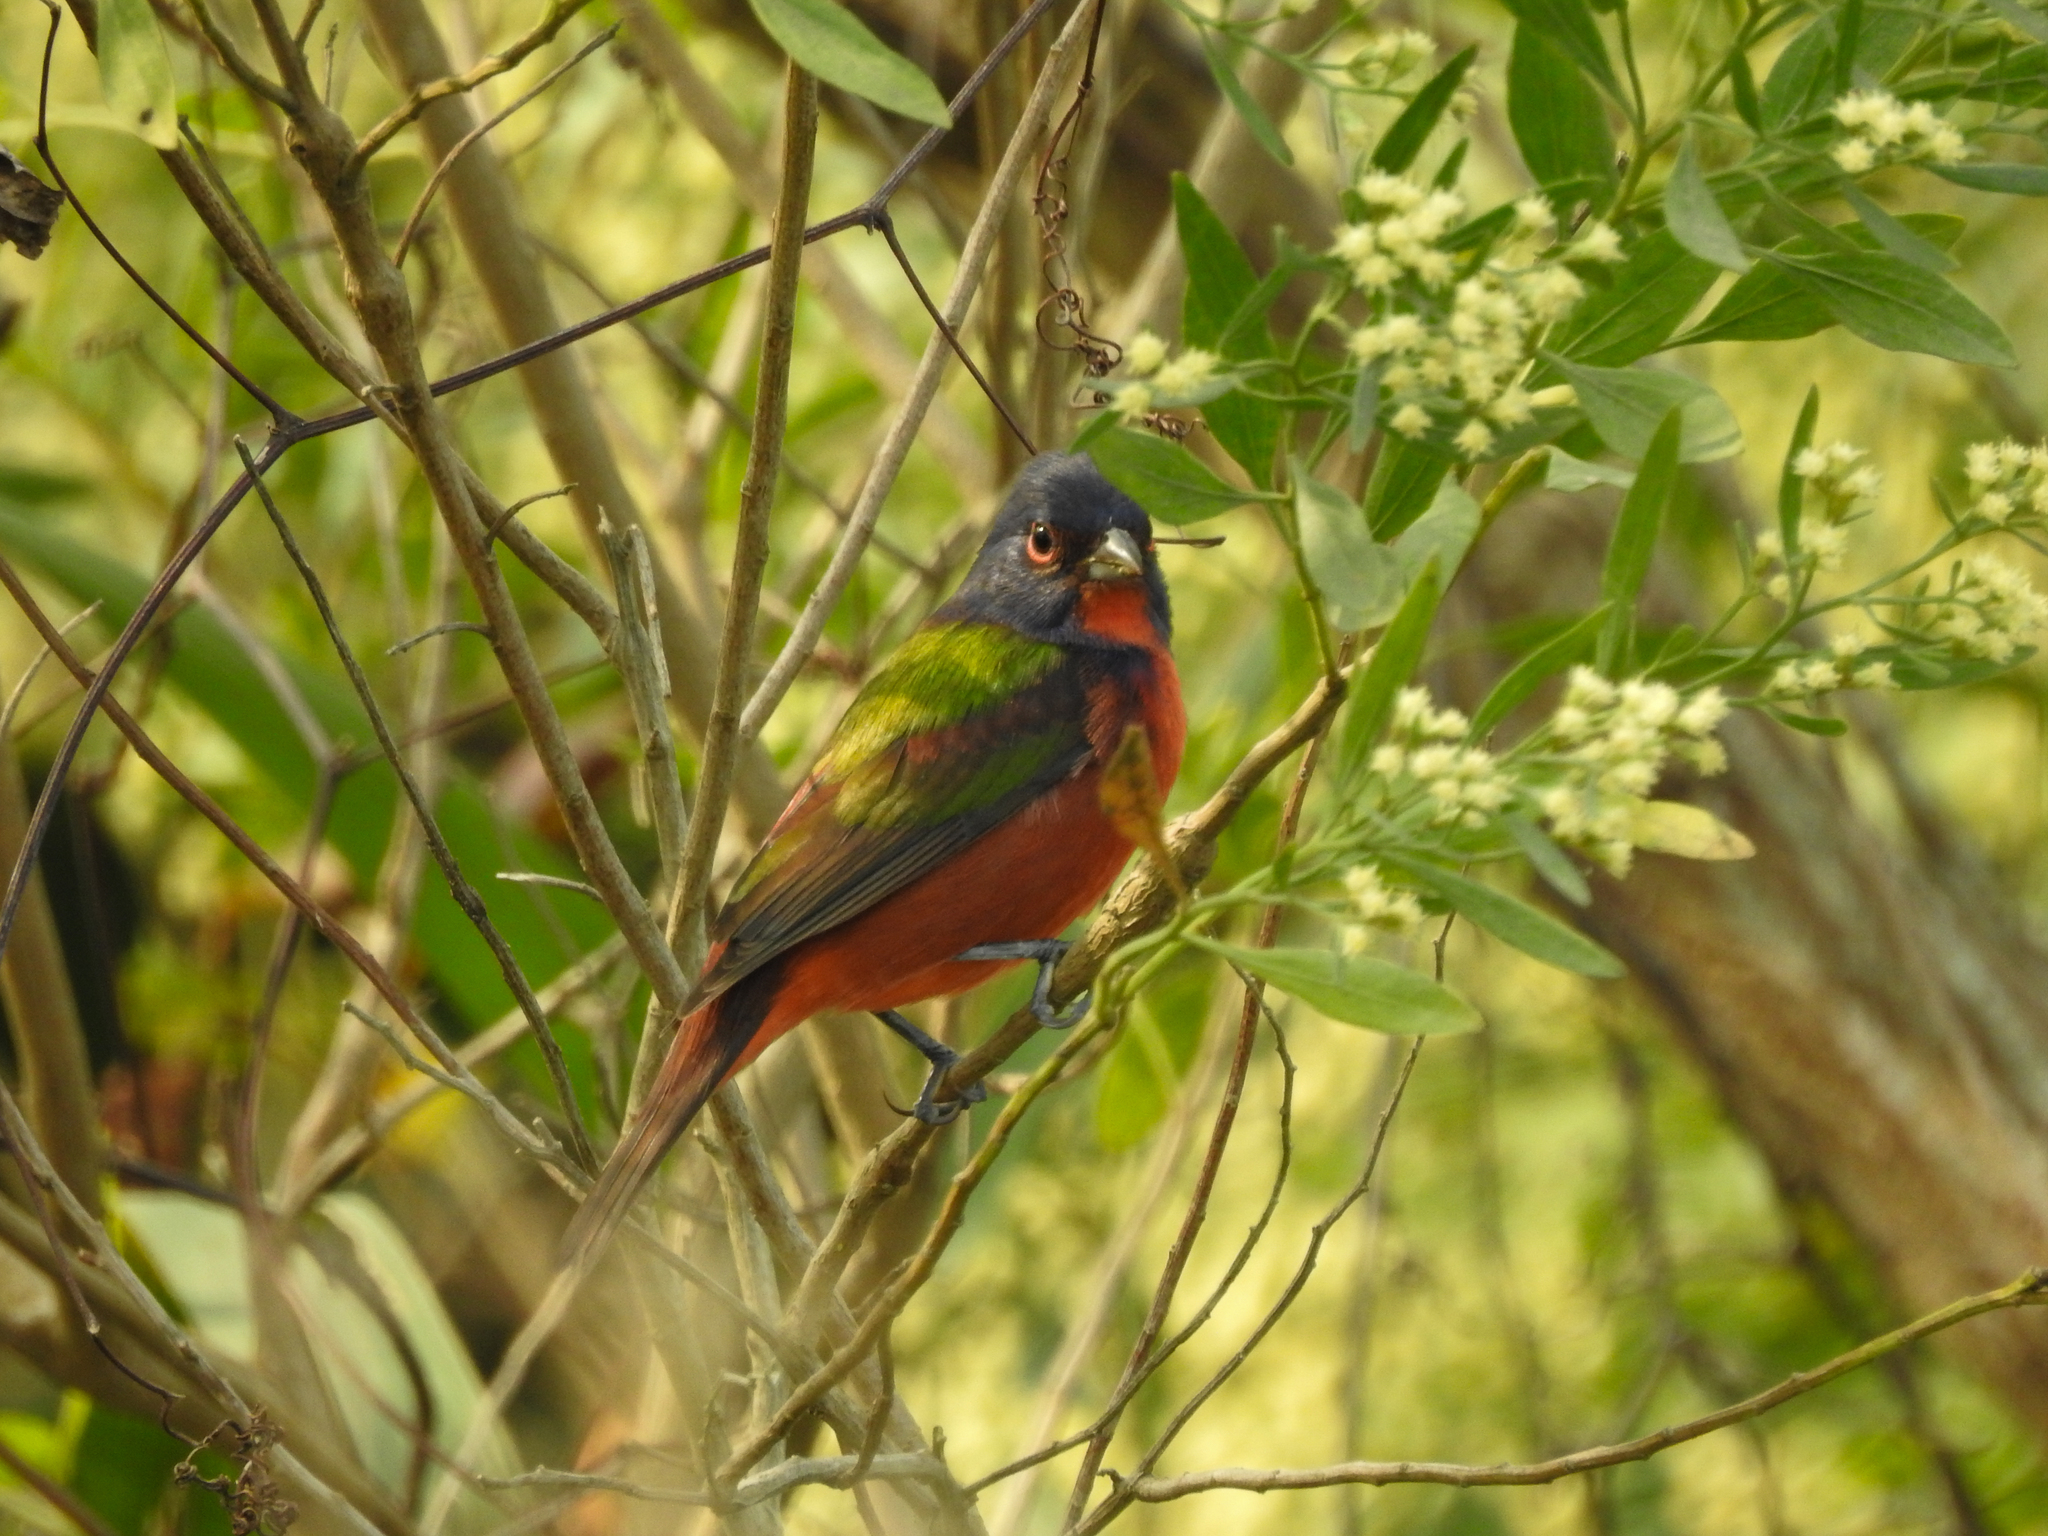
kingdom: Animalia
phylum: Chordata
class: Aves
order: Passeriformes
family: Cardinalidae
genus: Passerina
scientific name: Passerina ciris
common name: Painted bunting
